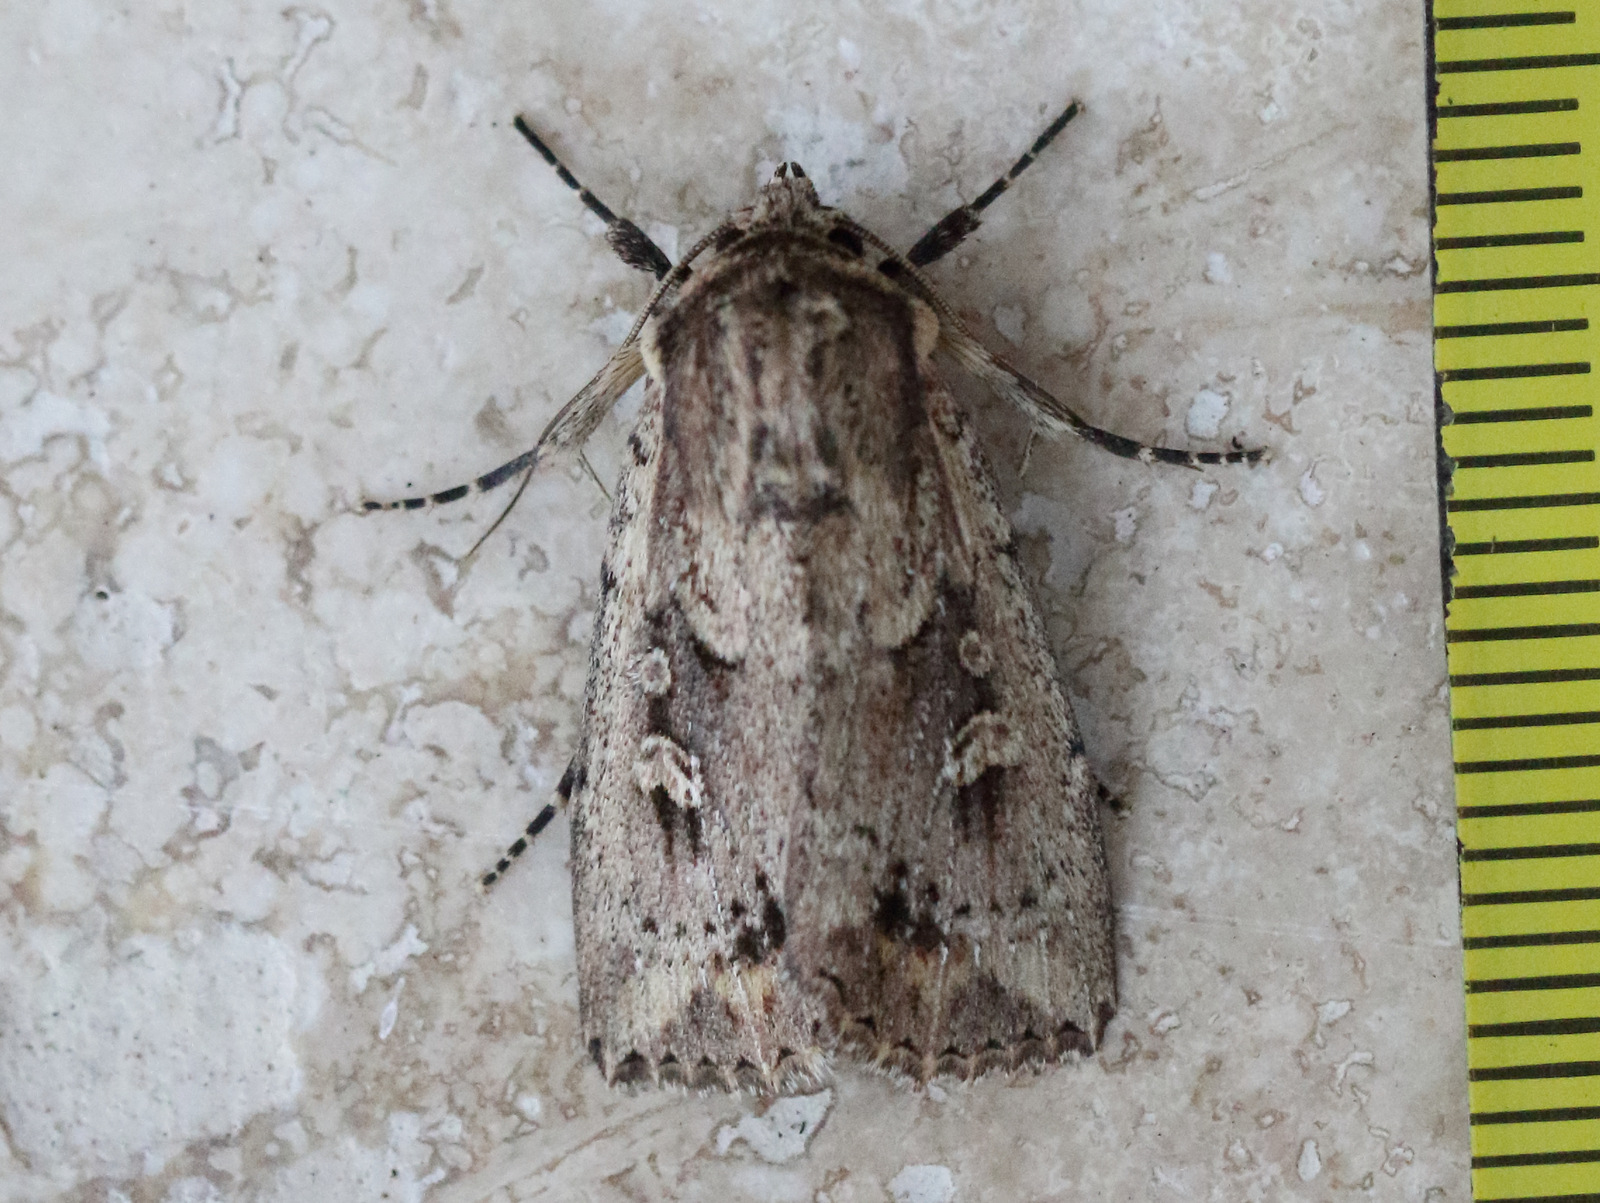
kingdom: Animalia
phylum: Arthropoda
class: Insecta
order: Lepidoptera
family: Noctuidae
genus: Mythimna
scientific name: Mythimna reversa
